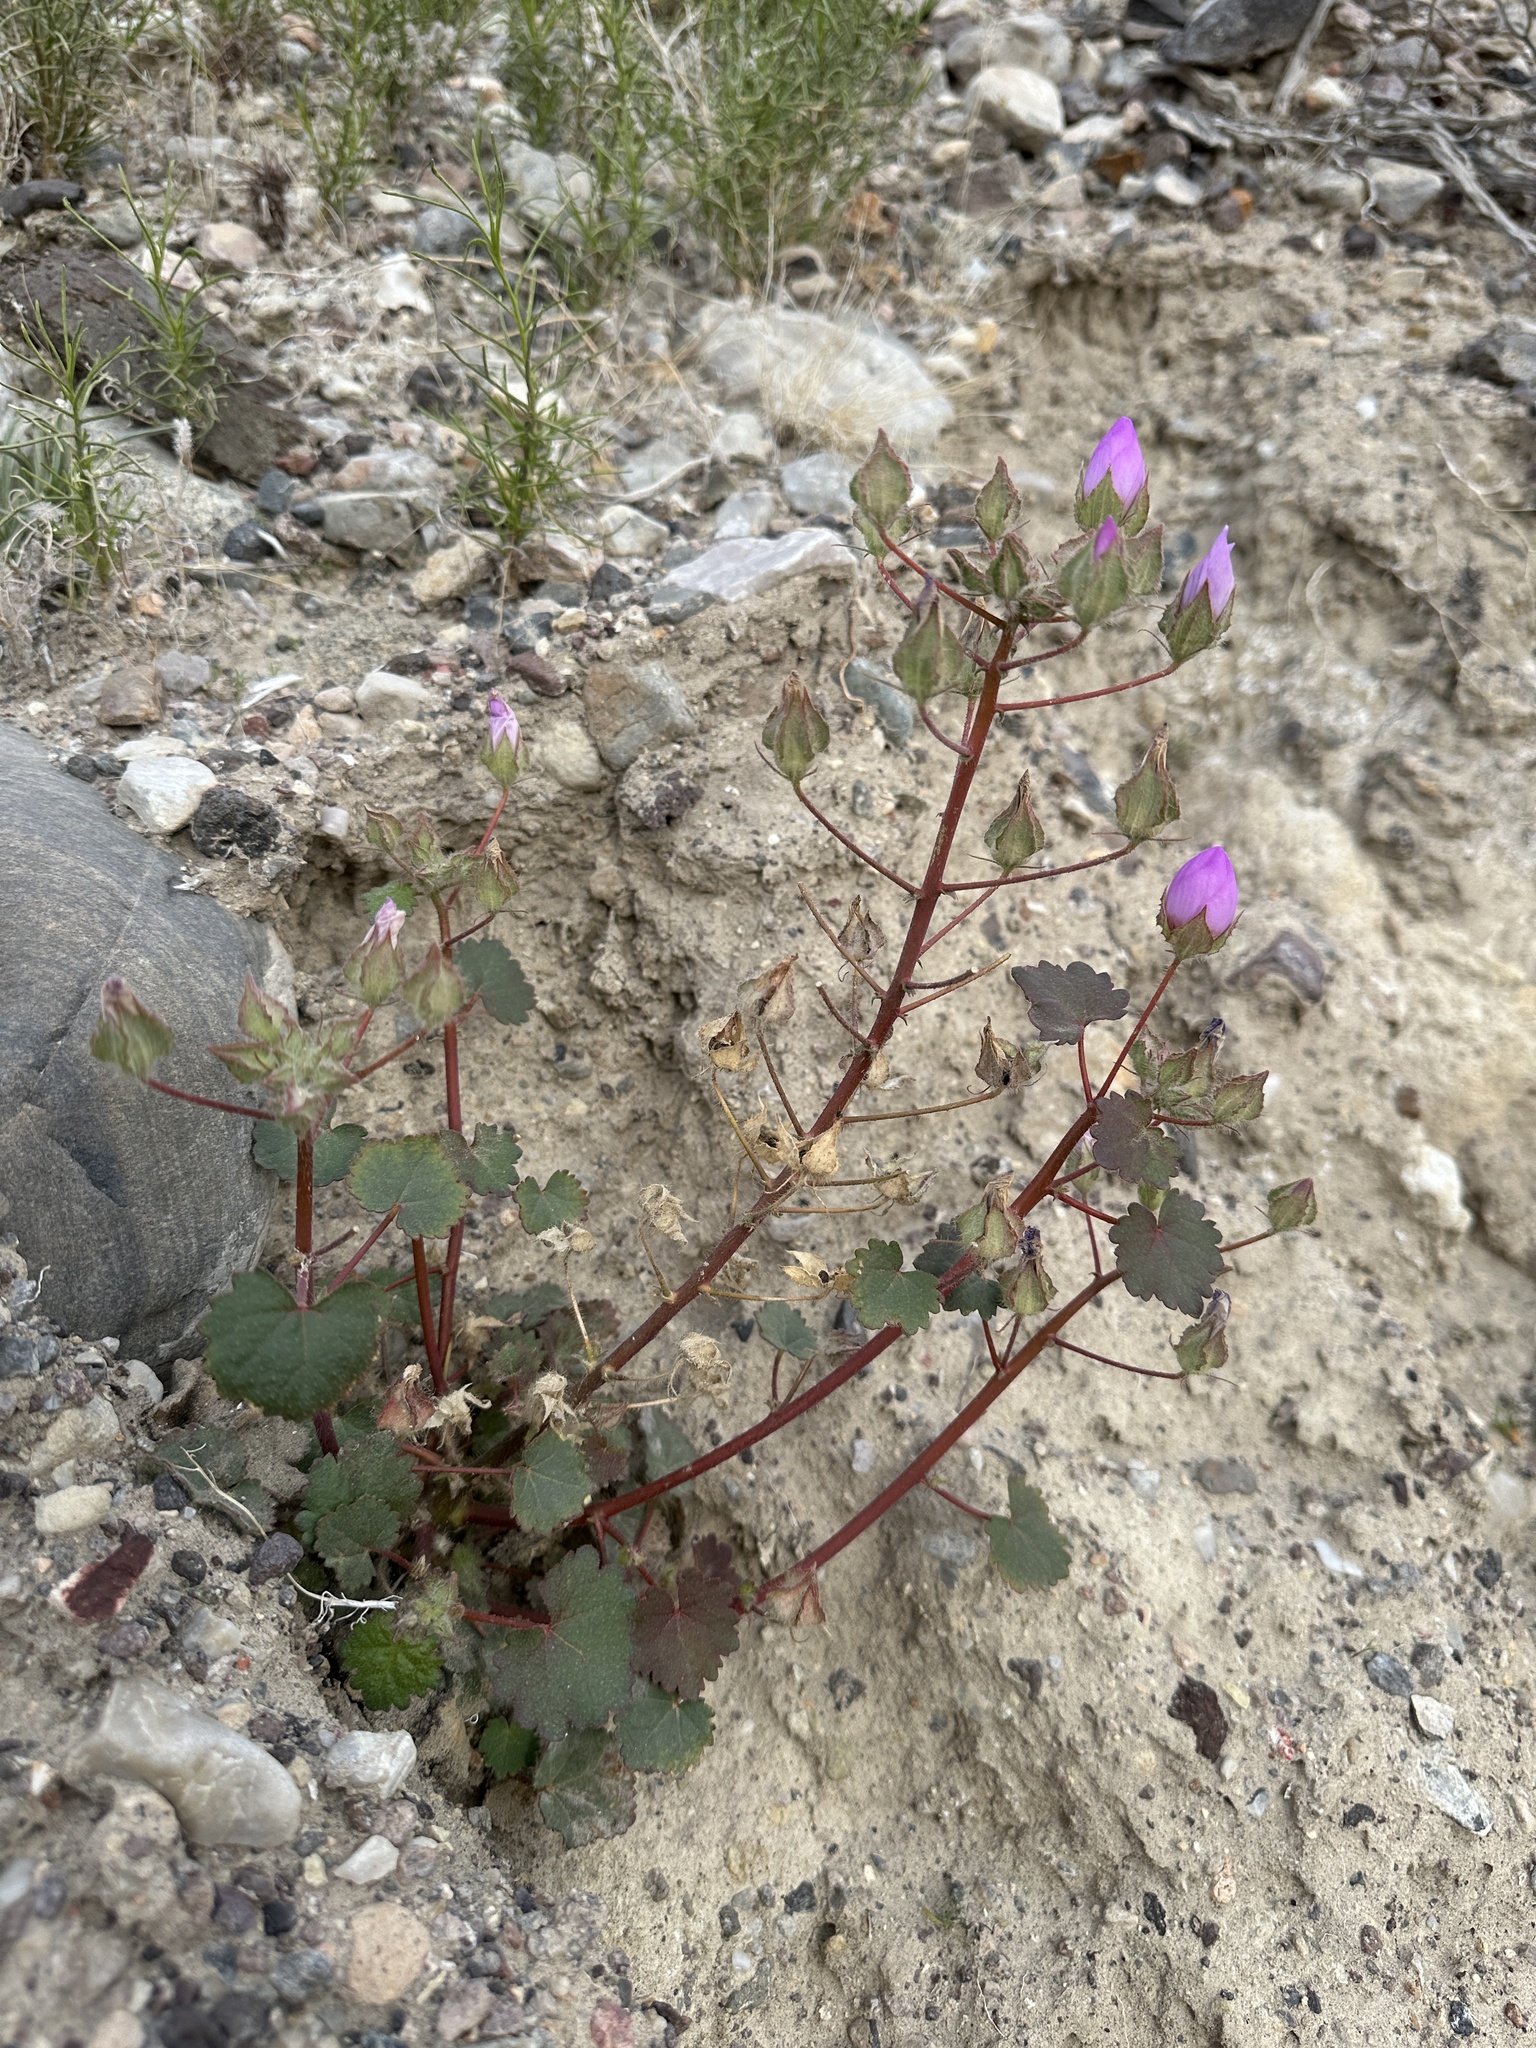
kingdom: Plantae
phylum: Tracheophyta
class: Magnoliopsida
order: Malvales
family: Malvaceae
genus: Eremalche
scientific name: Eremalche rotundifolia
